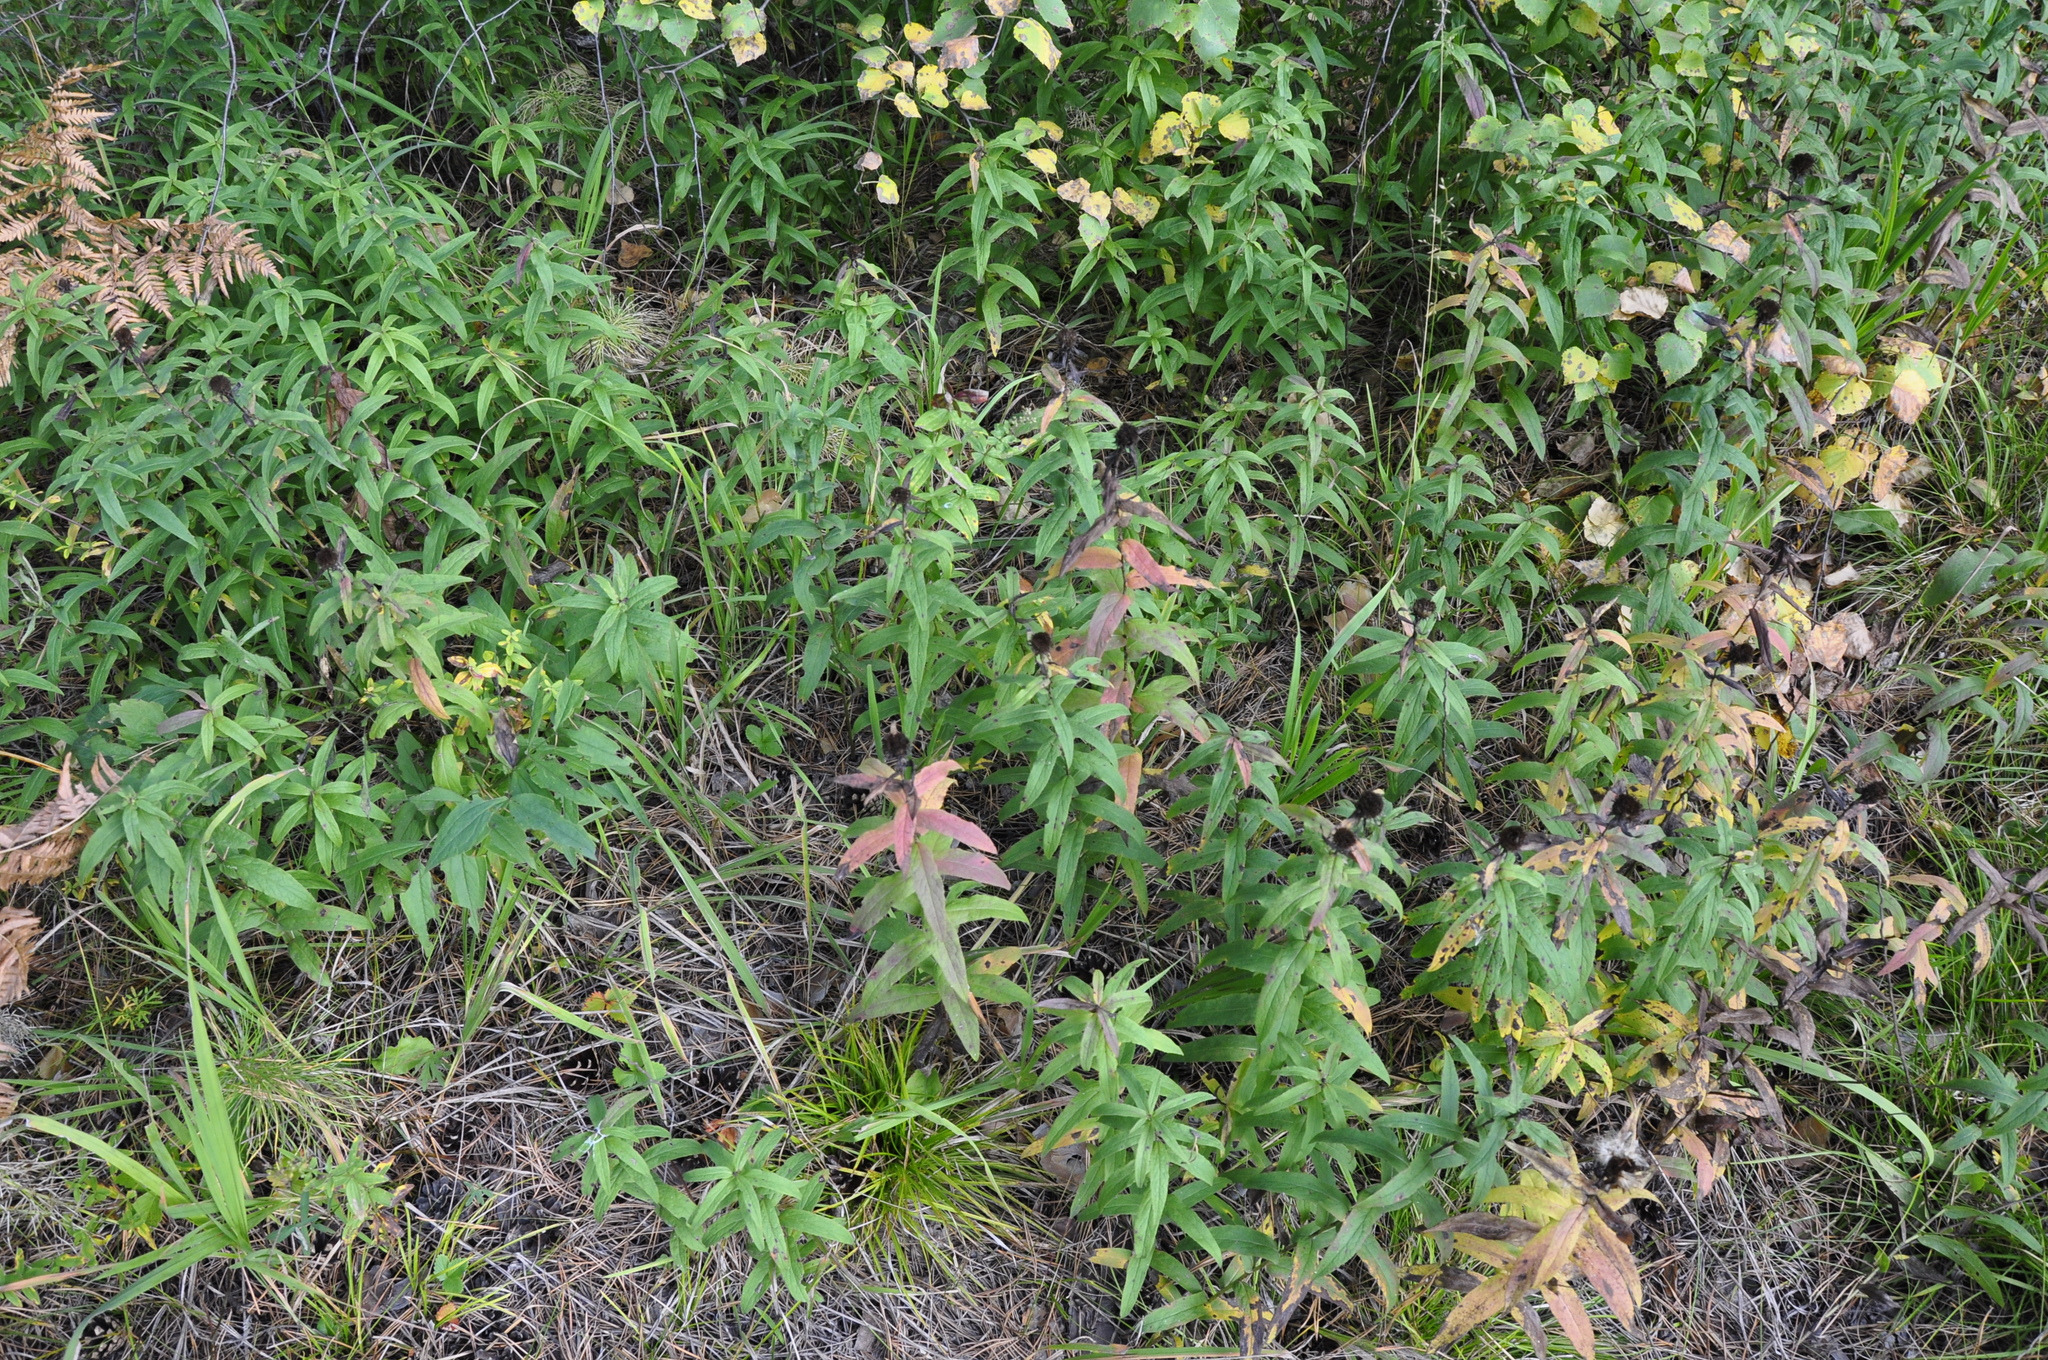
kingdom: Plantae
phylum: Tracheophyta
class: Magnoliopsida
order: Asterales
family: Asteraceae
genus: Pentanema
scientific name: Pentanema salicinum
